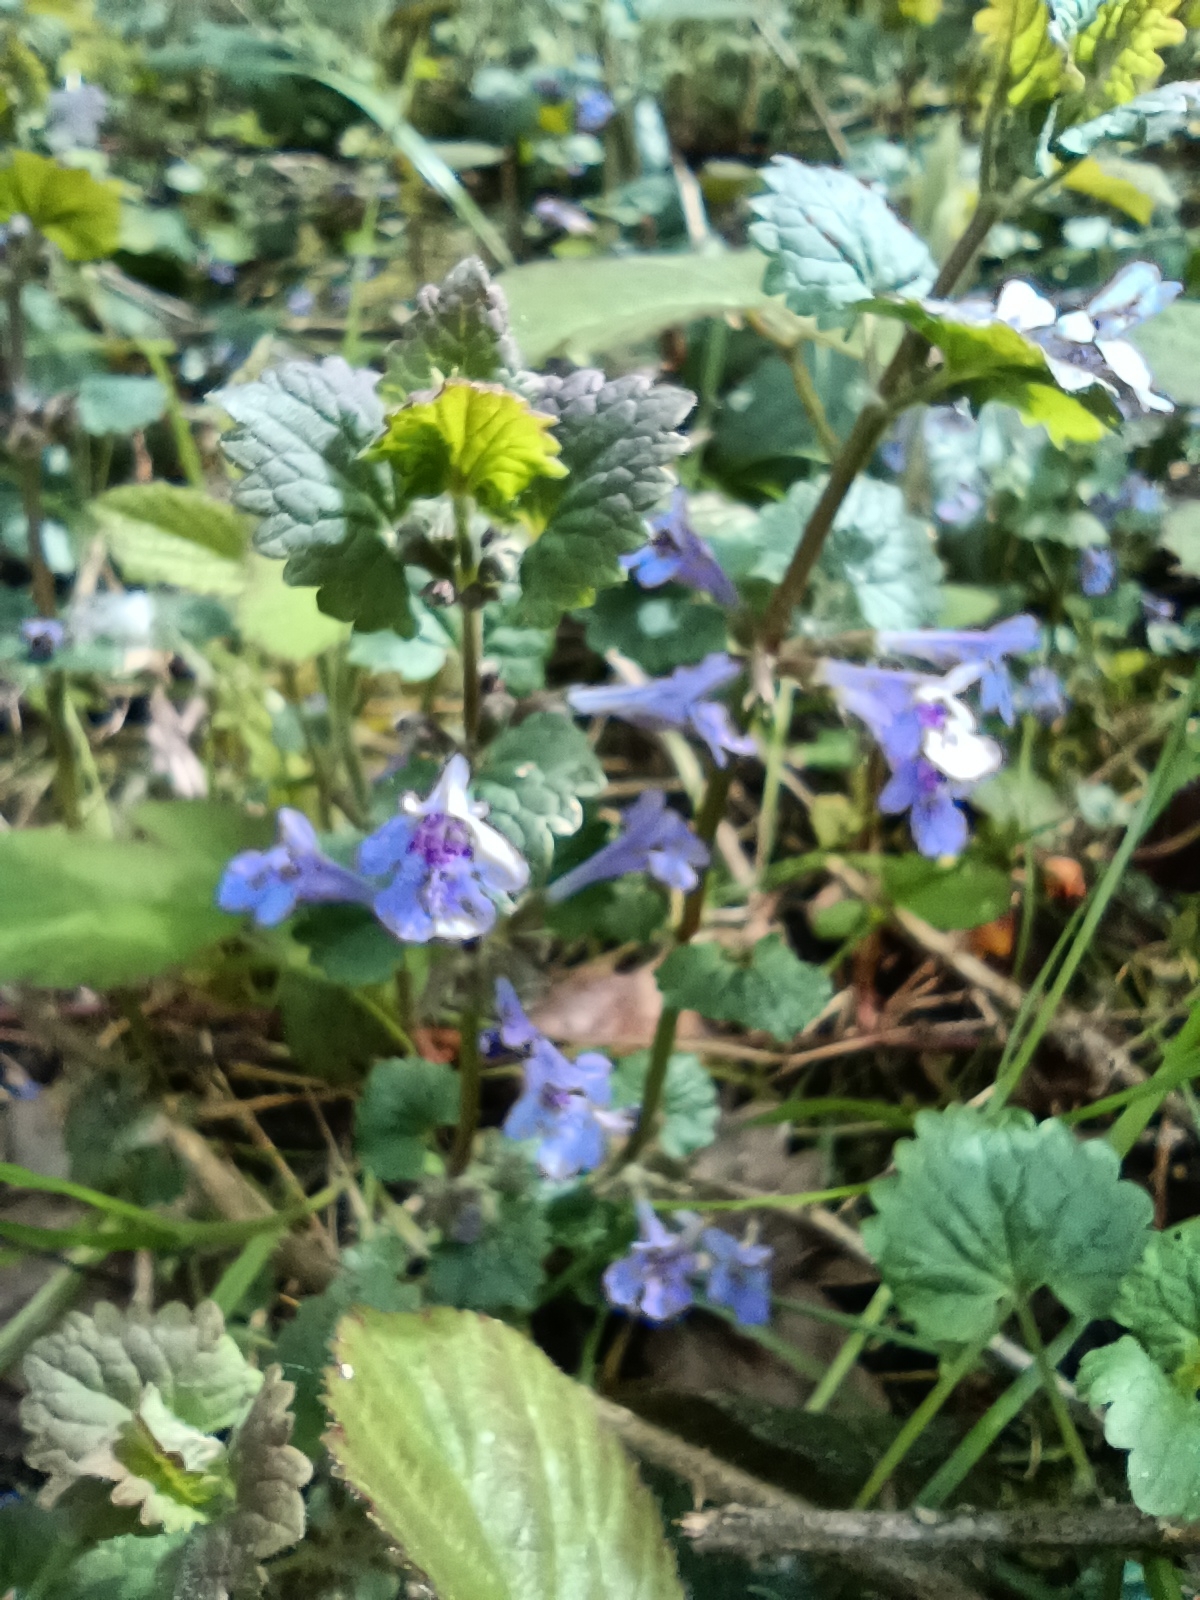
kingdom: Plantae
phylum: Tracheophyta
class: Magnoliopsida
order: Lamiales
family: Lamiaceae
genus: Glechoma
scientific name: Glechoma hederacea
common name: Ground ivy
